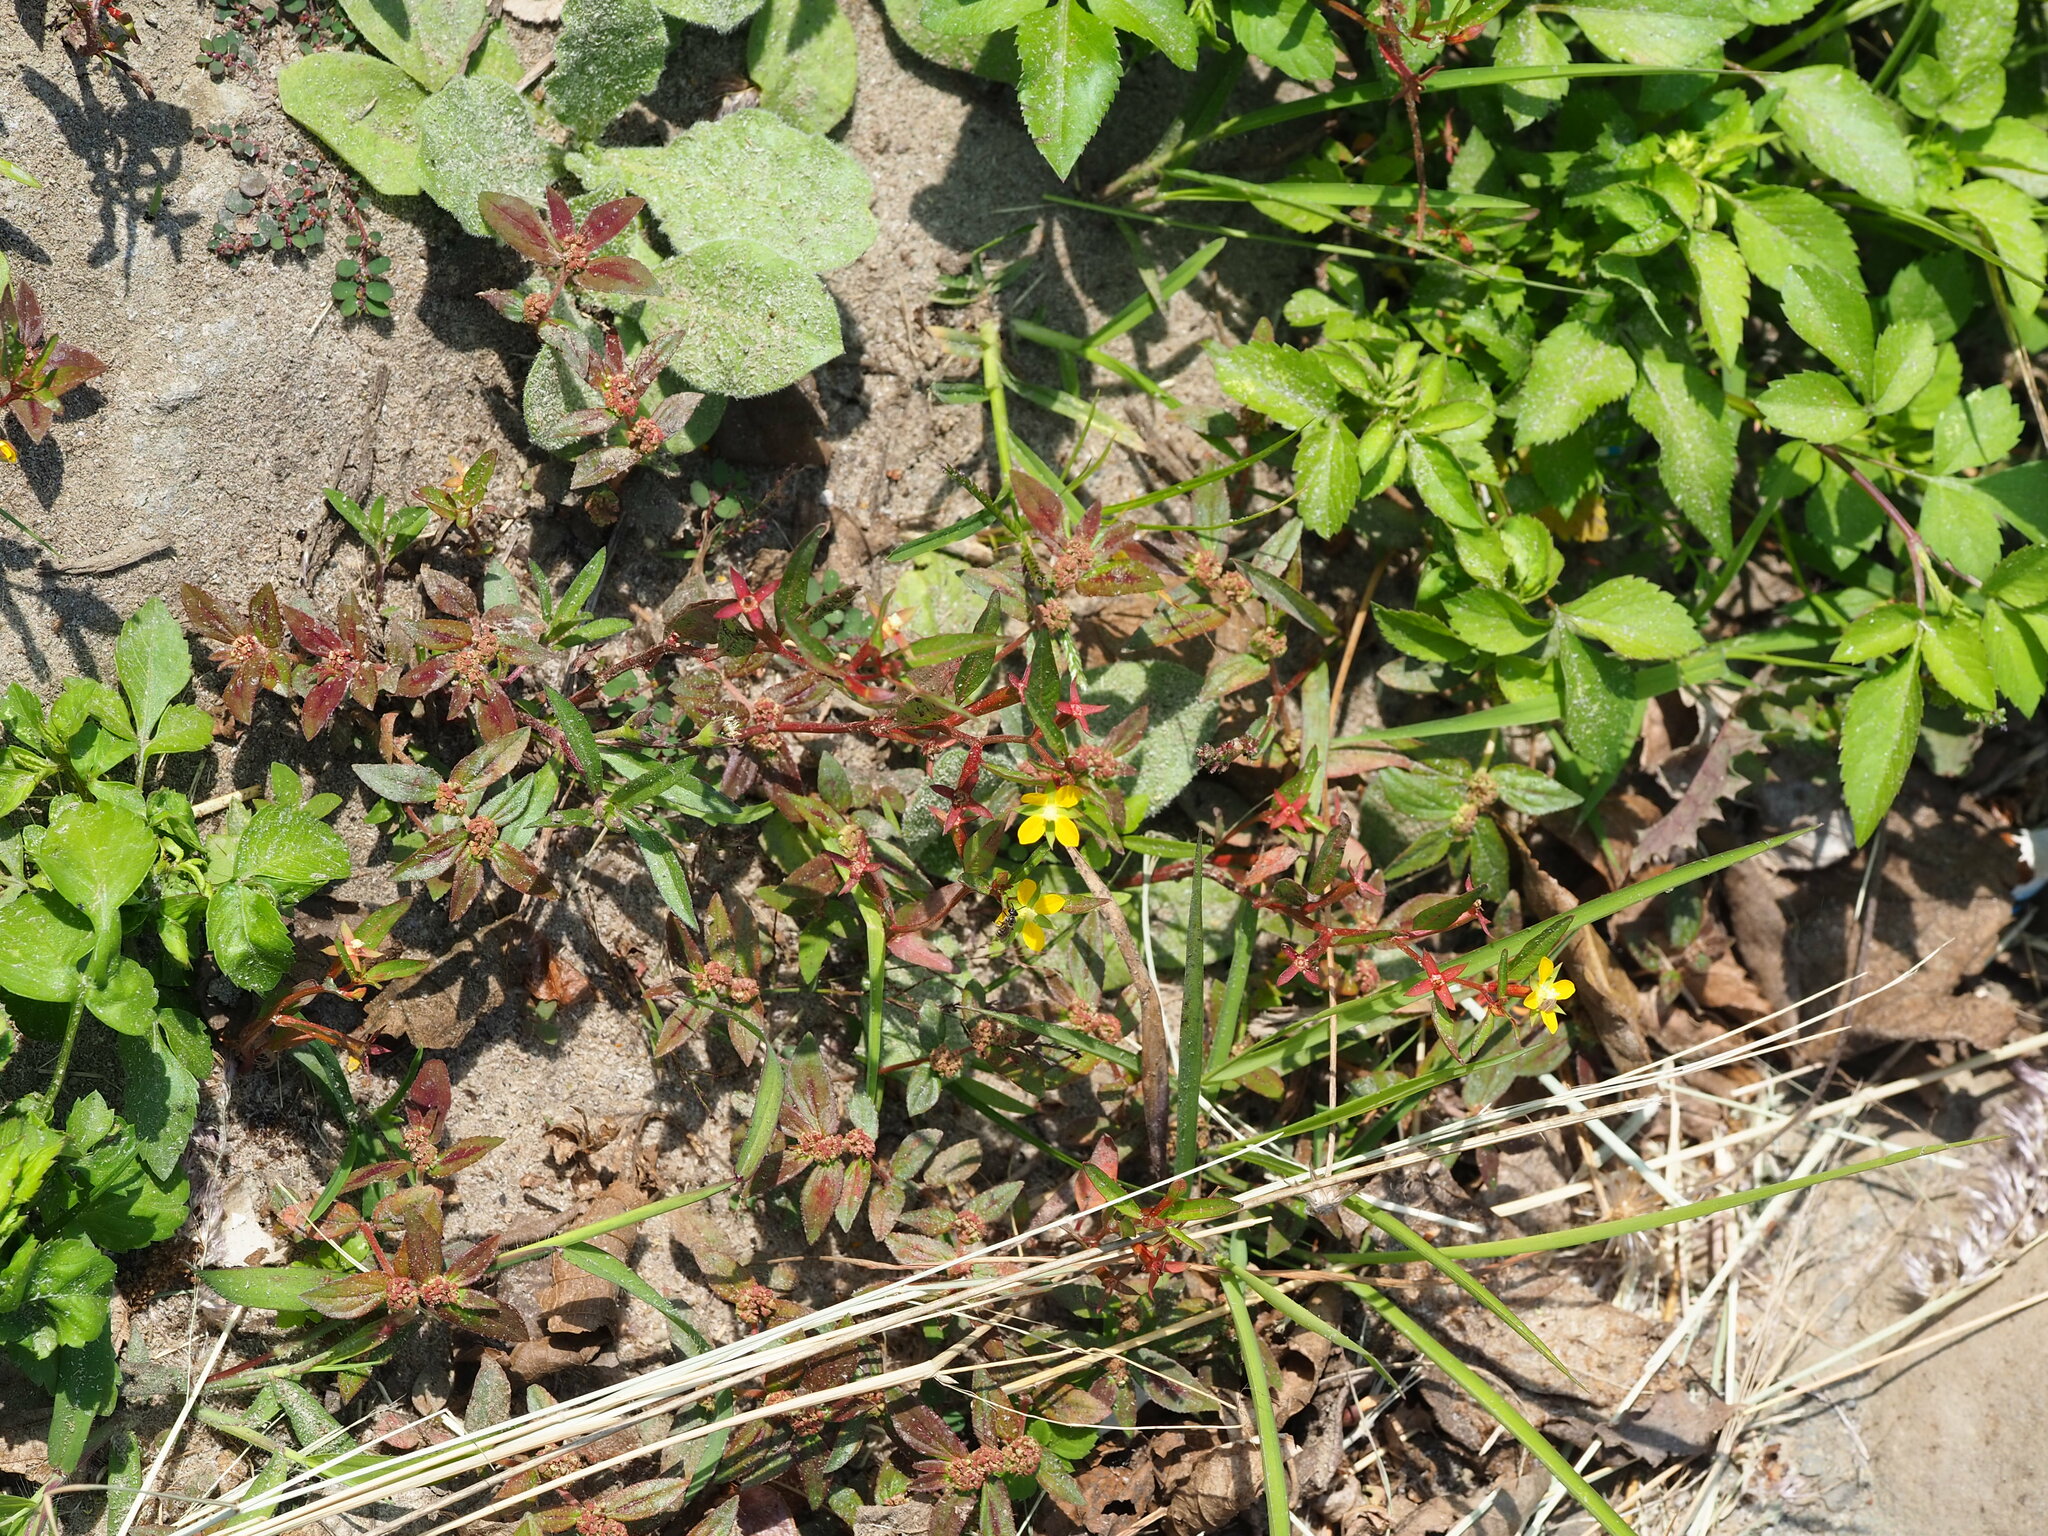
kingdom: Plantae
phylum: Tracheophyta
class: Magnoliopsida
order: Myrtales
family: Onagraceae
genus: Ludwigia
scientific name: Ludwigia erecta
